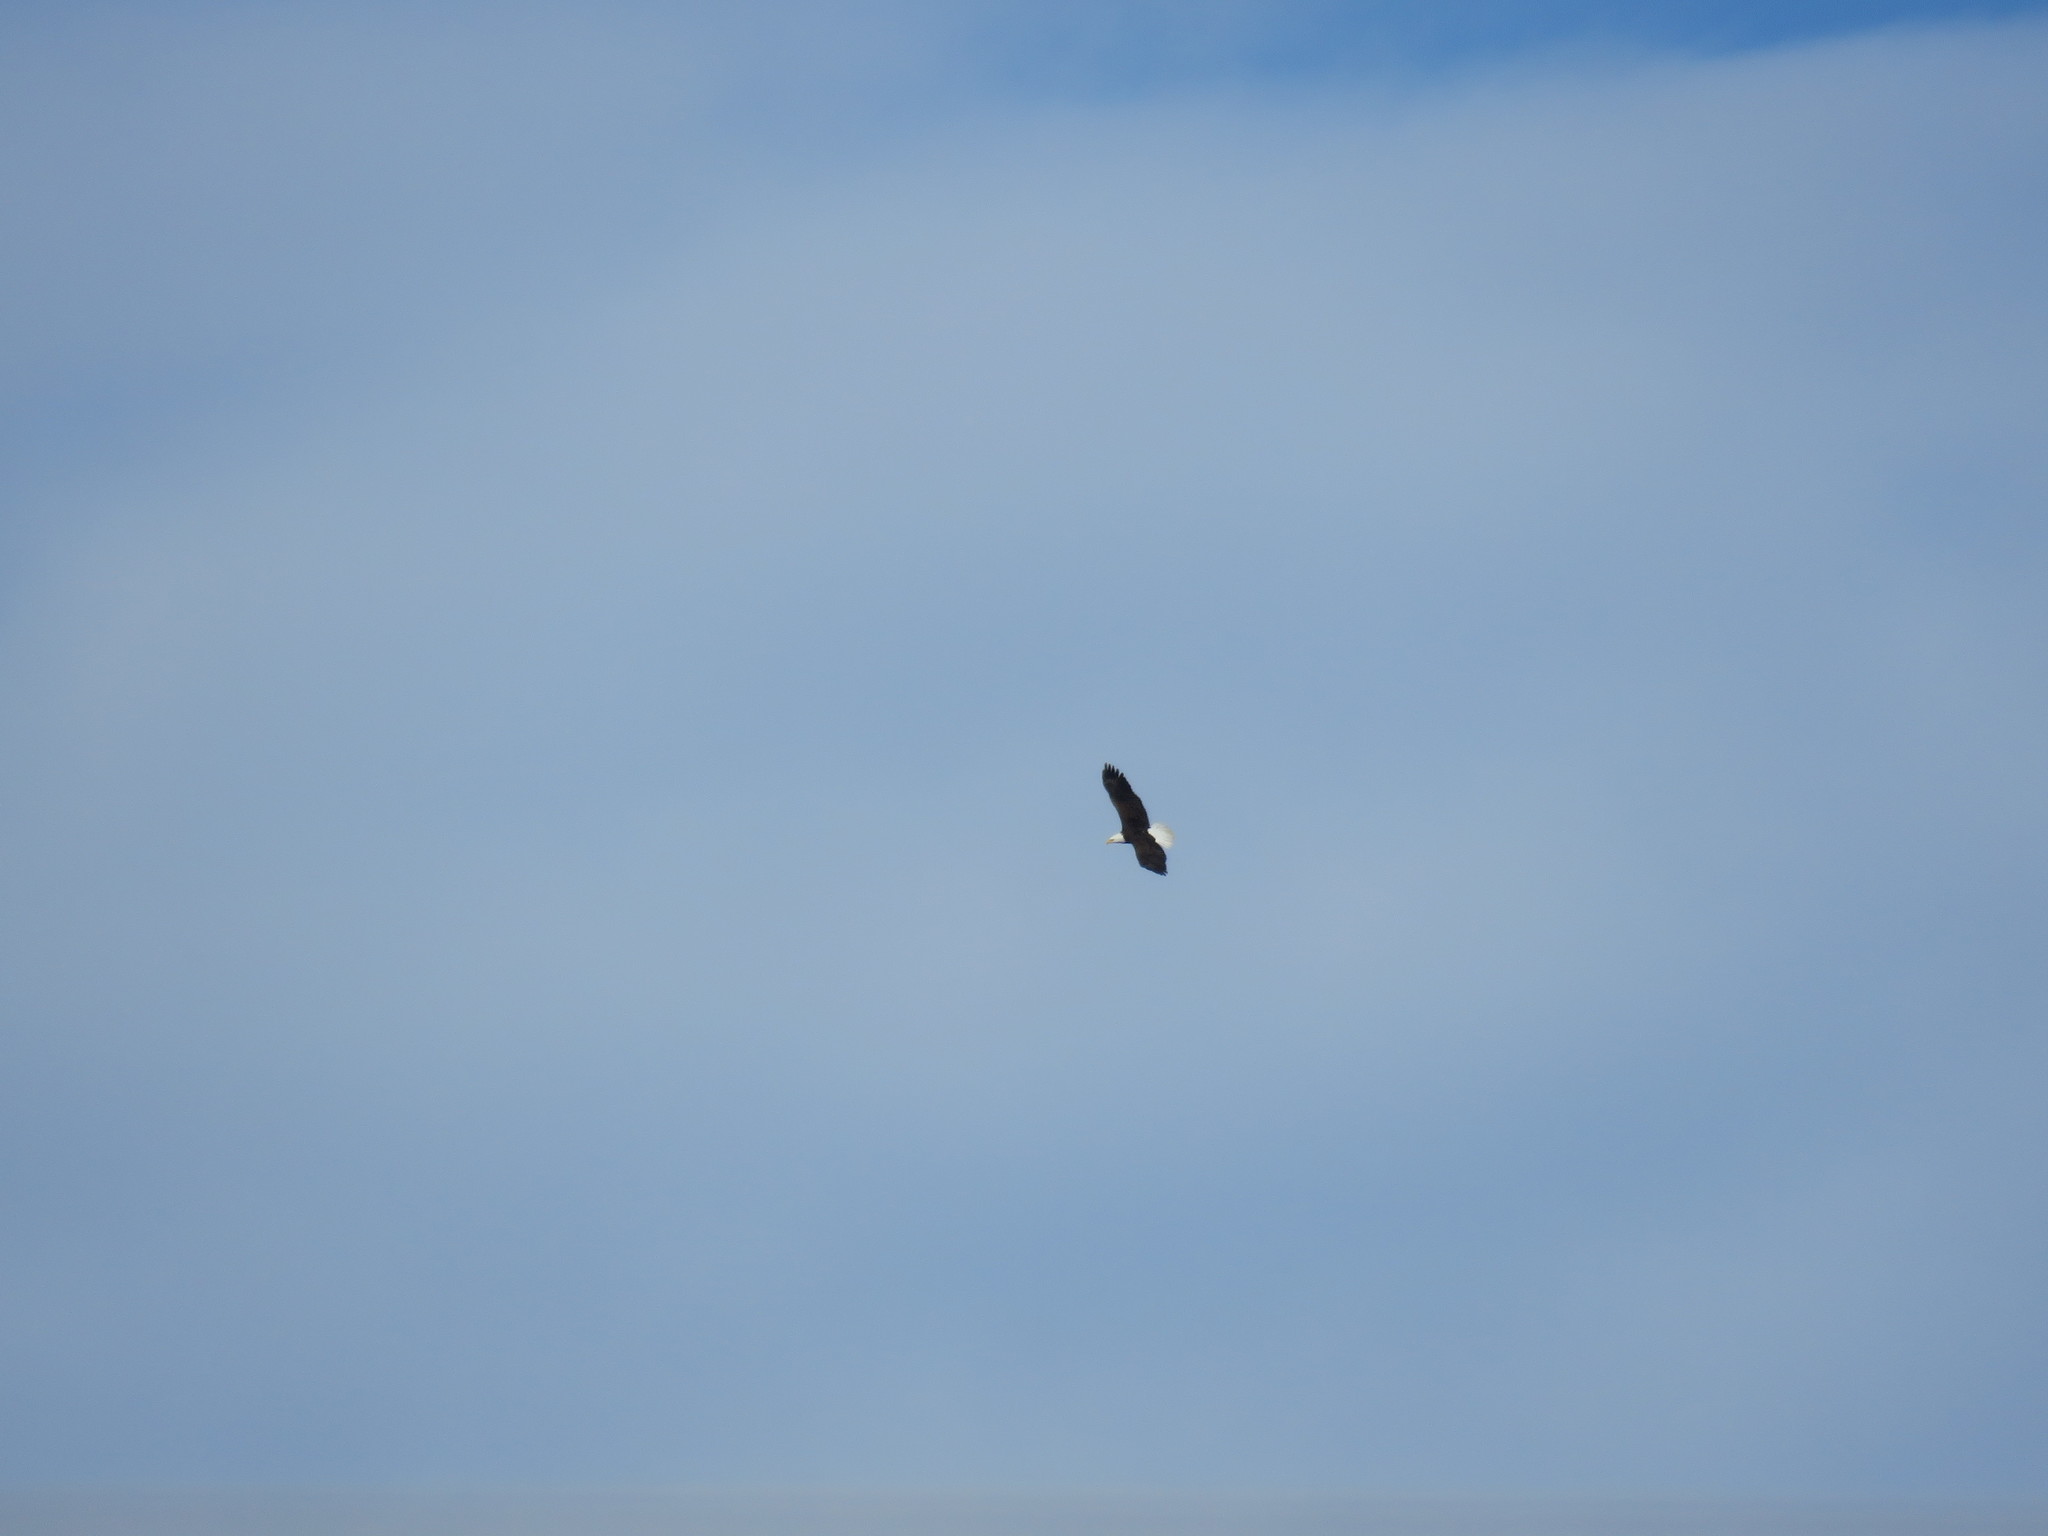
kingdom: Animalia
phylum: Chordata
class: Aves
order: Accipitriformes
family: Accipitridae
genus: Haliaeetus
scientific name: Haliaeetus leucocephalus
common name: Bald eagle
